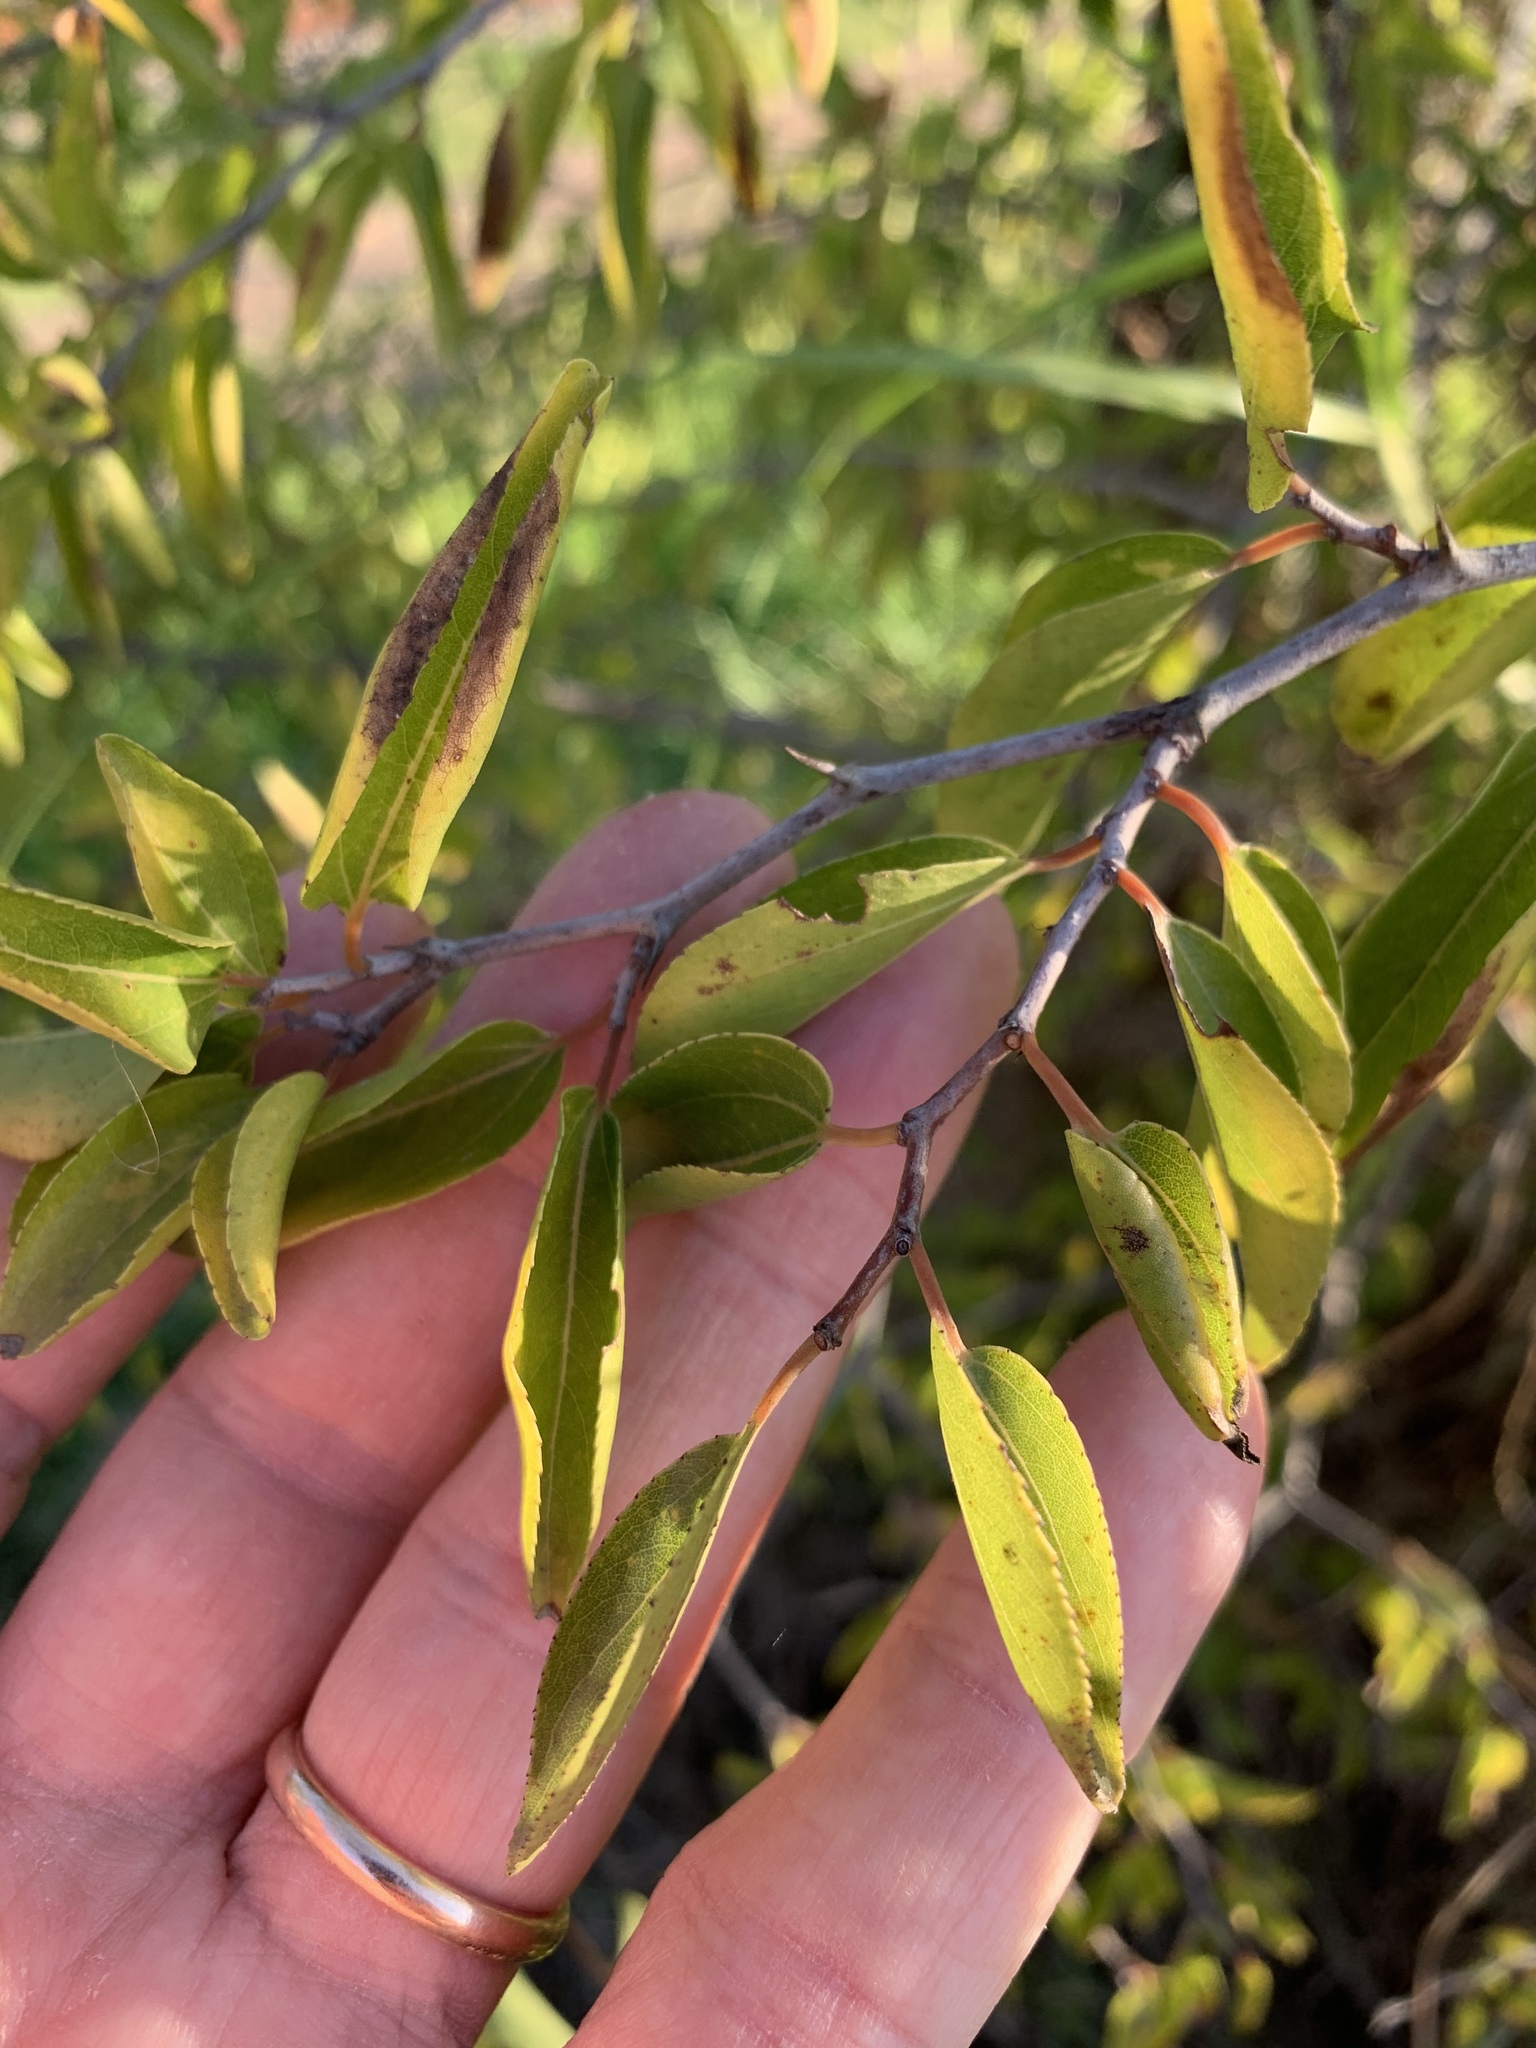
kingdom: Plantae
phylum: Tracheophyta
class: Magnoliopsida
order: Rosales
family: Rhamnaceae
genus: Ziziphus
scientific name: Ziziphus mucronata
